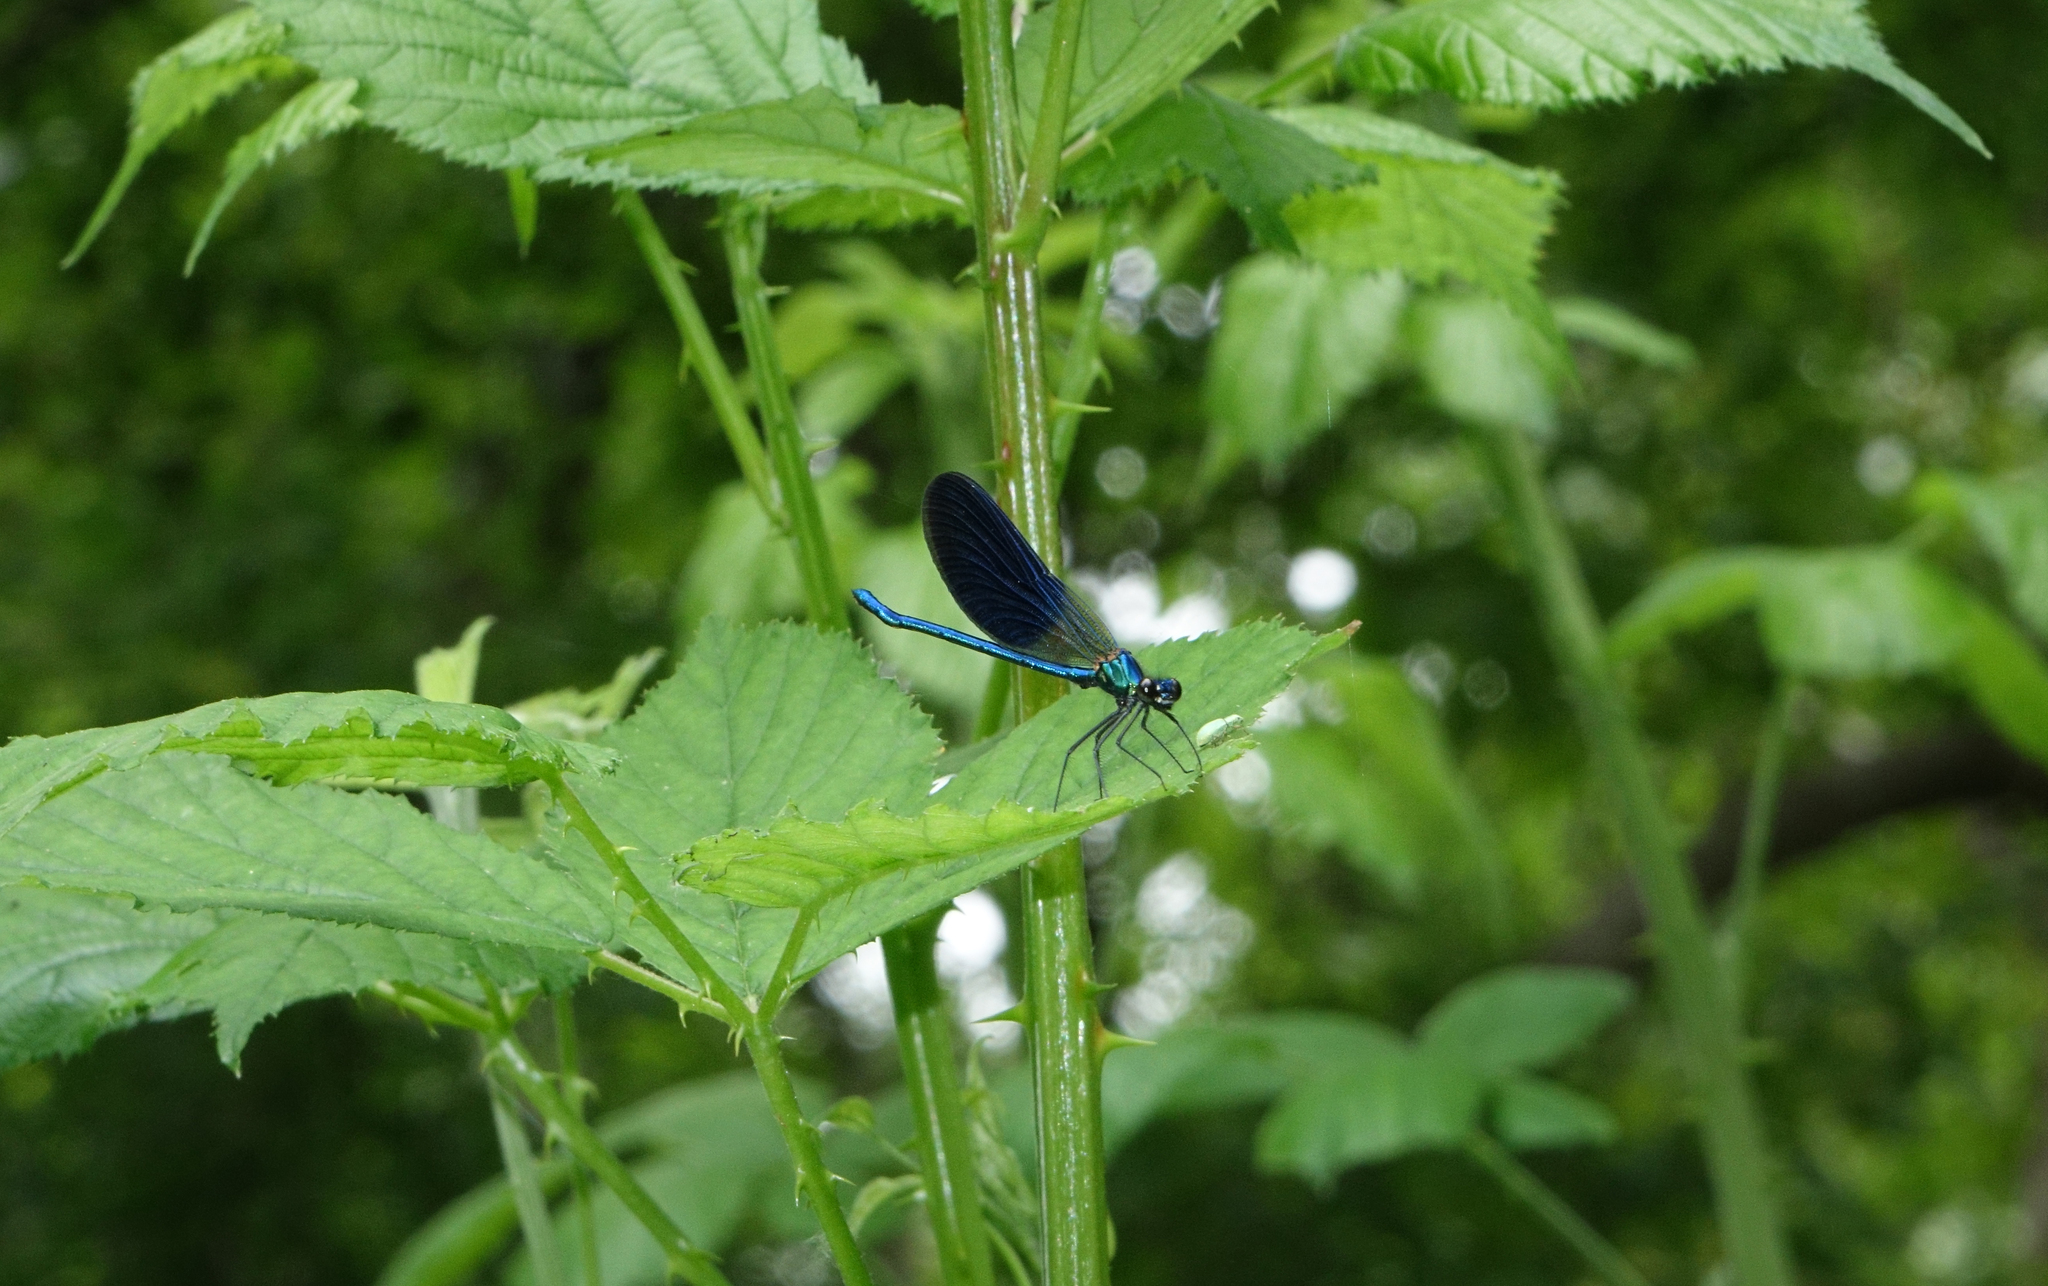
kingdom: Animalia
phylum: Arthropoda
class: Insecta
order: Odonata
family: Calopterygidae
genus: Calopteryx
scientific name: Calopteryx splendens
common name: Banded demoiselle
